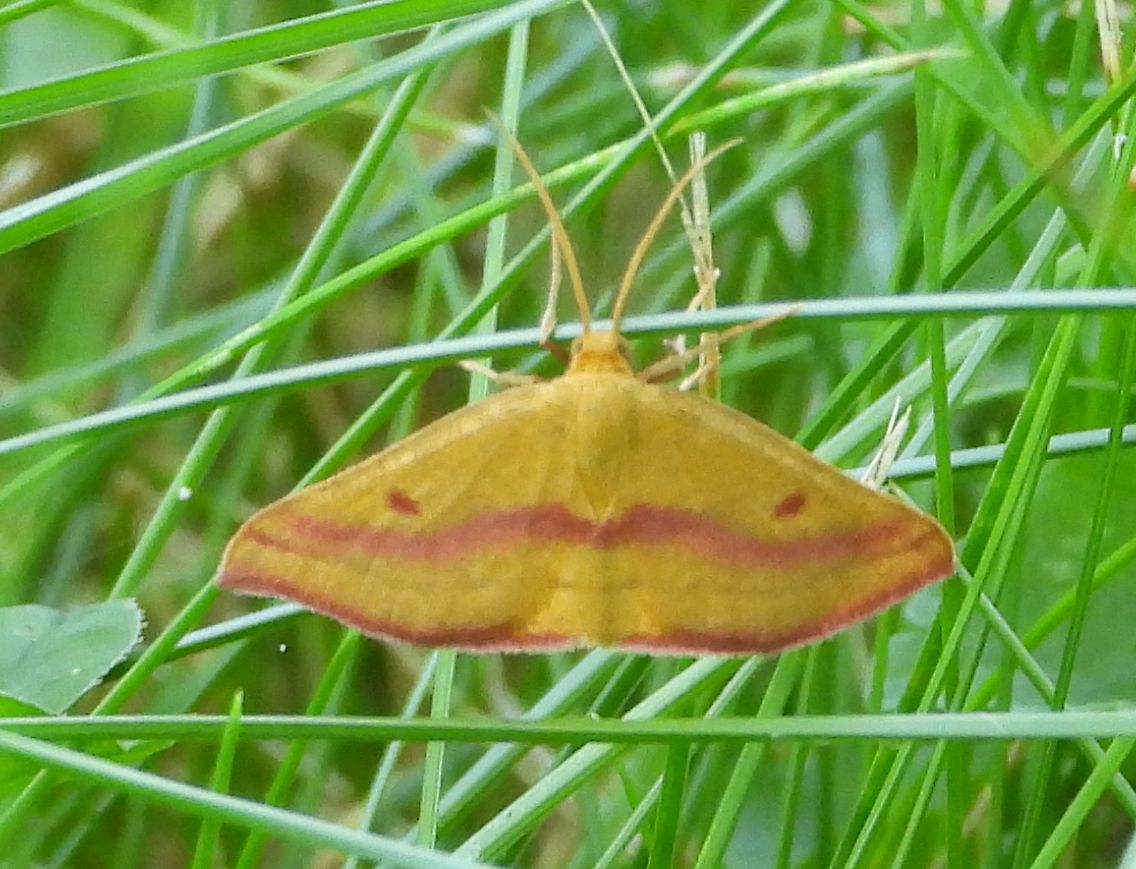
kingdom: Animalia
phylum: Arthropoda
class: Insecta
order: Lepidoptera
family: Geometridae
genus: Haematopis
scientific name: Haematopis grataria
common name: Chickweed geometer
